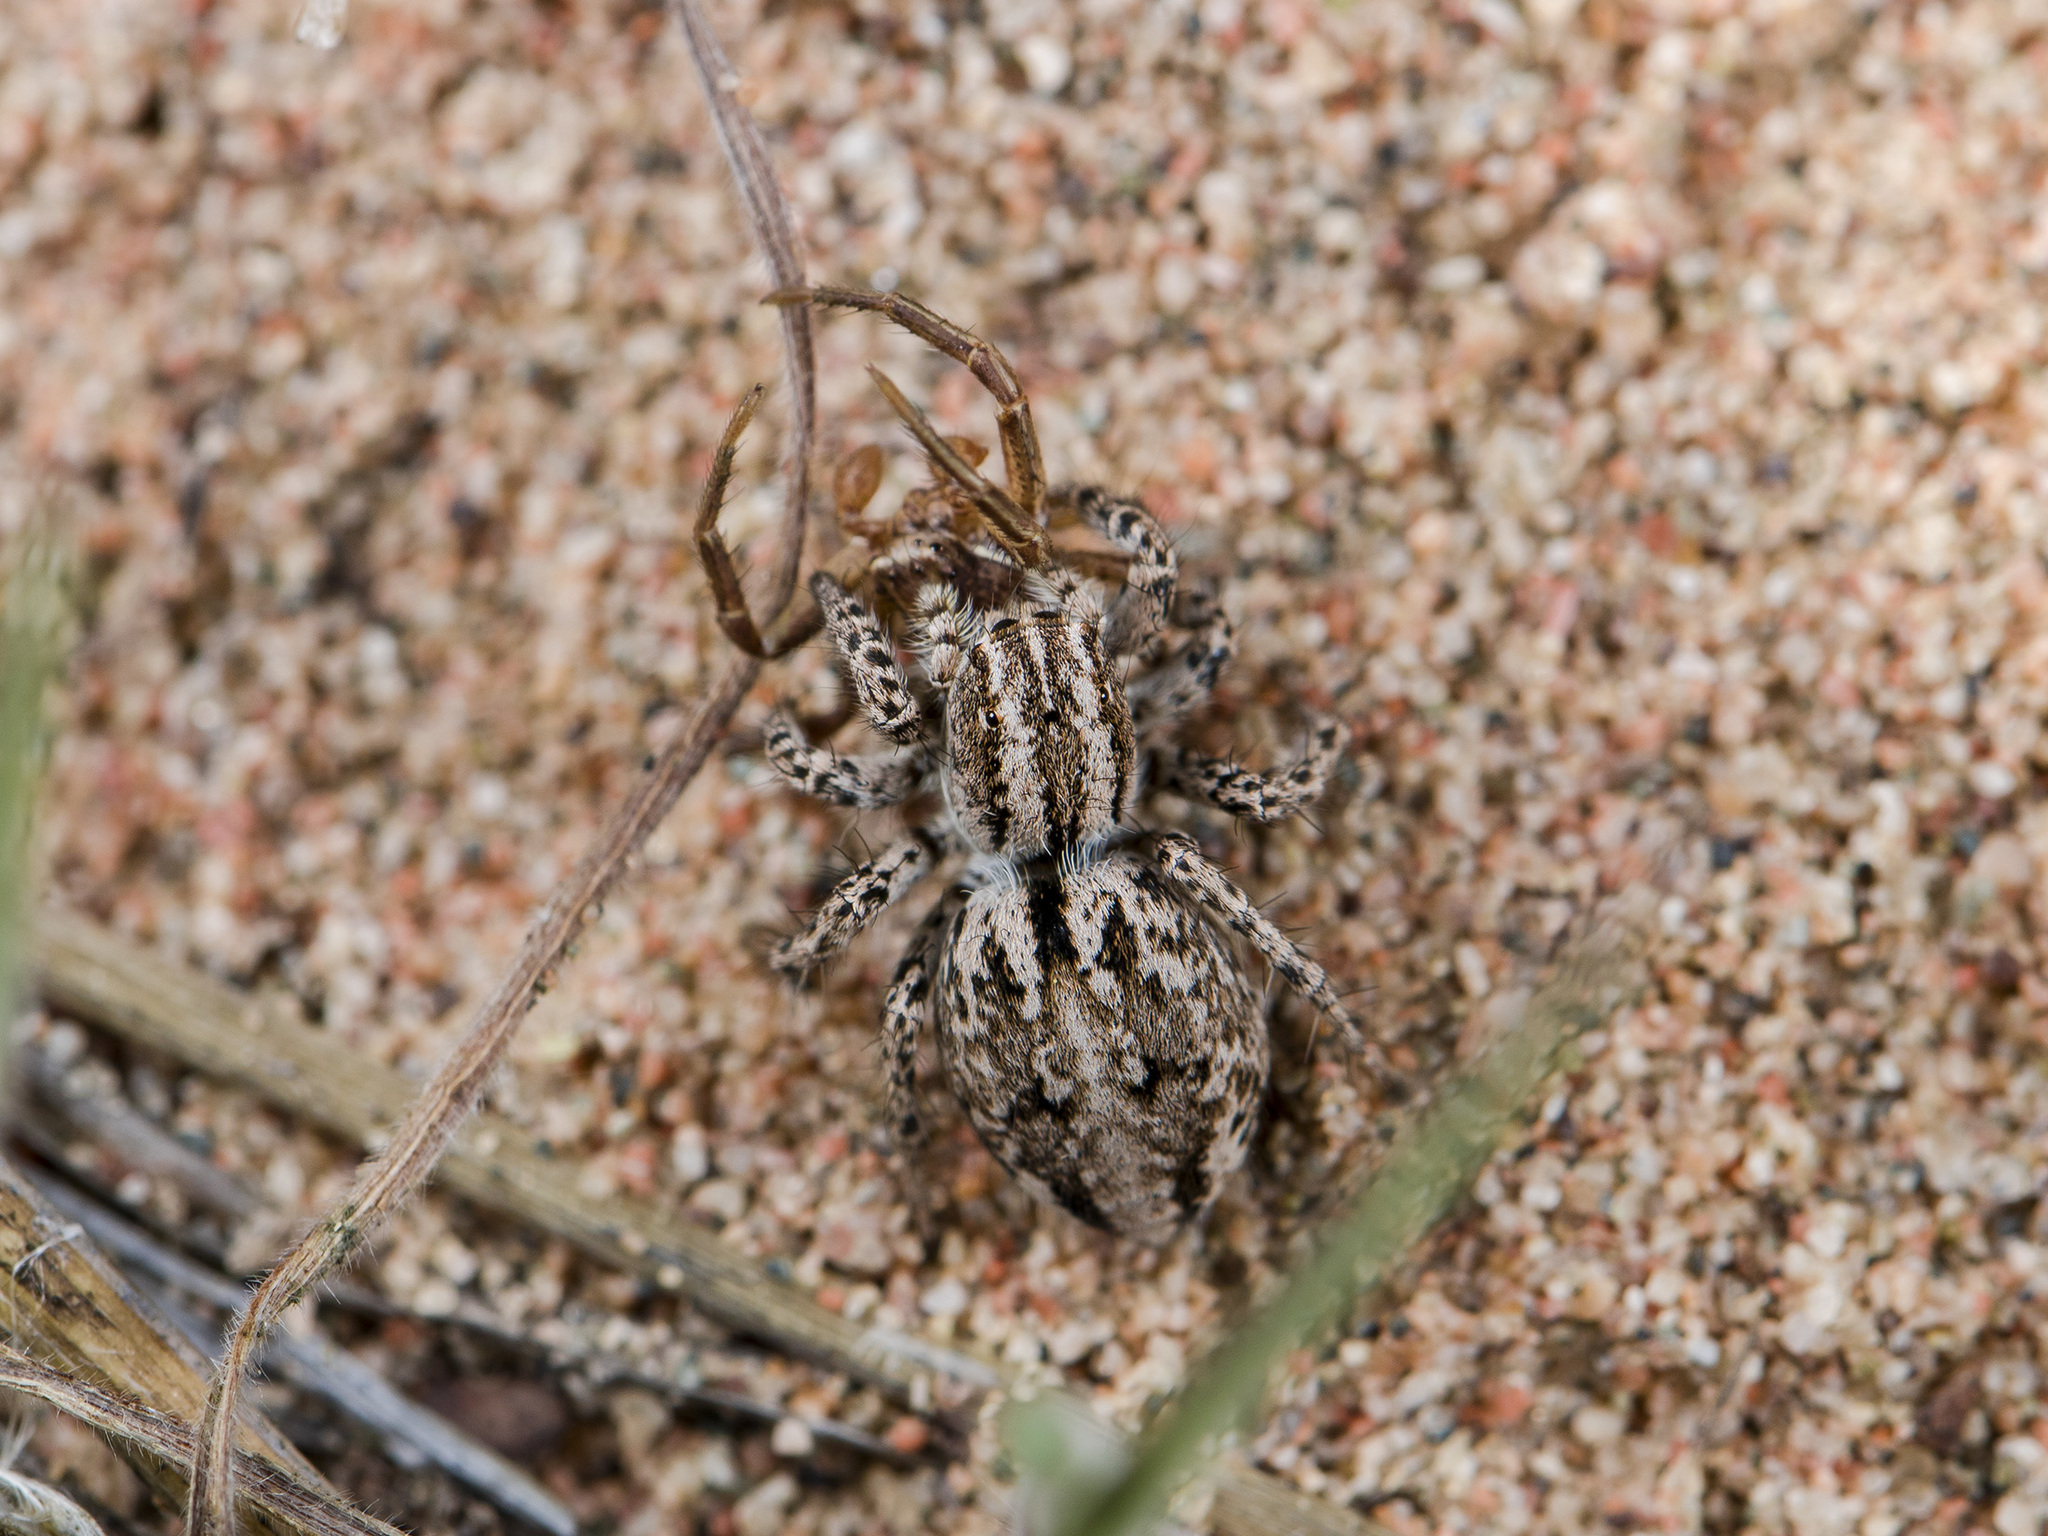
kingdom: Animalia
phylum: Arthropoda
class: Arachnida
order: Araneae
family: Salticidae
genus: Aelurillus
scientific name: Aelurillus m-nigrum
